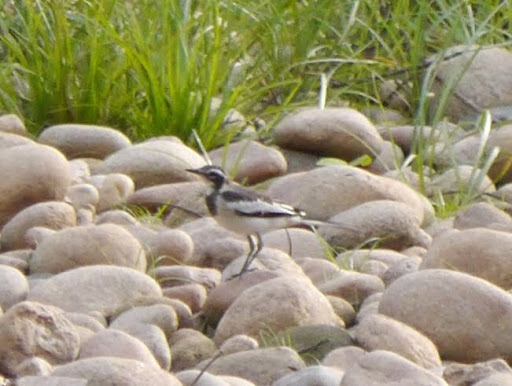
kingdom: Animalia
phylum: Chordata
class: Aves
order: Passeriformes
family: Motacillidae
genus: Motacilla
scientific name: Motacilla aguimp
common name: African pied wagtail
